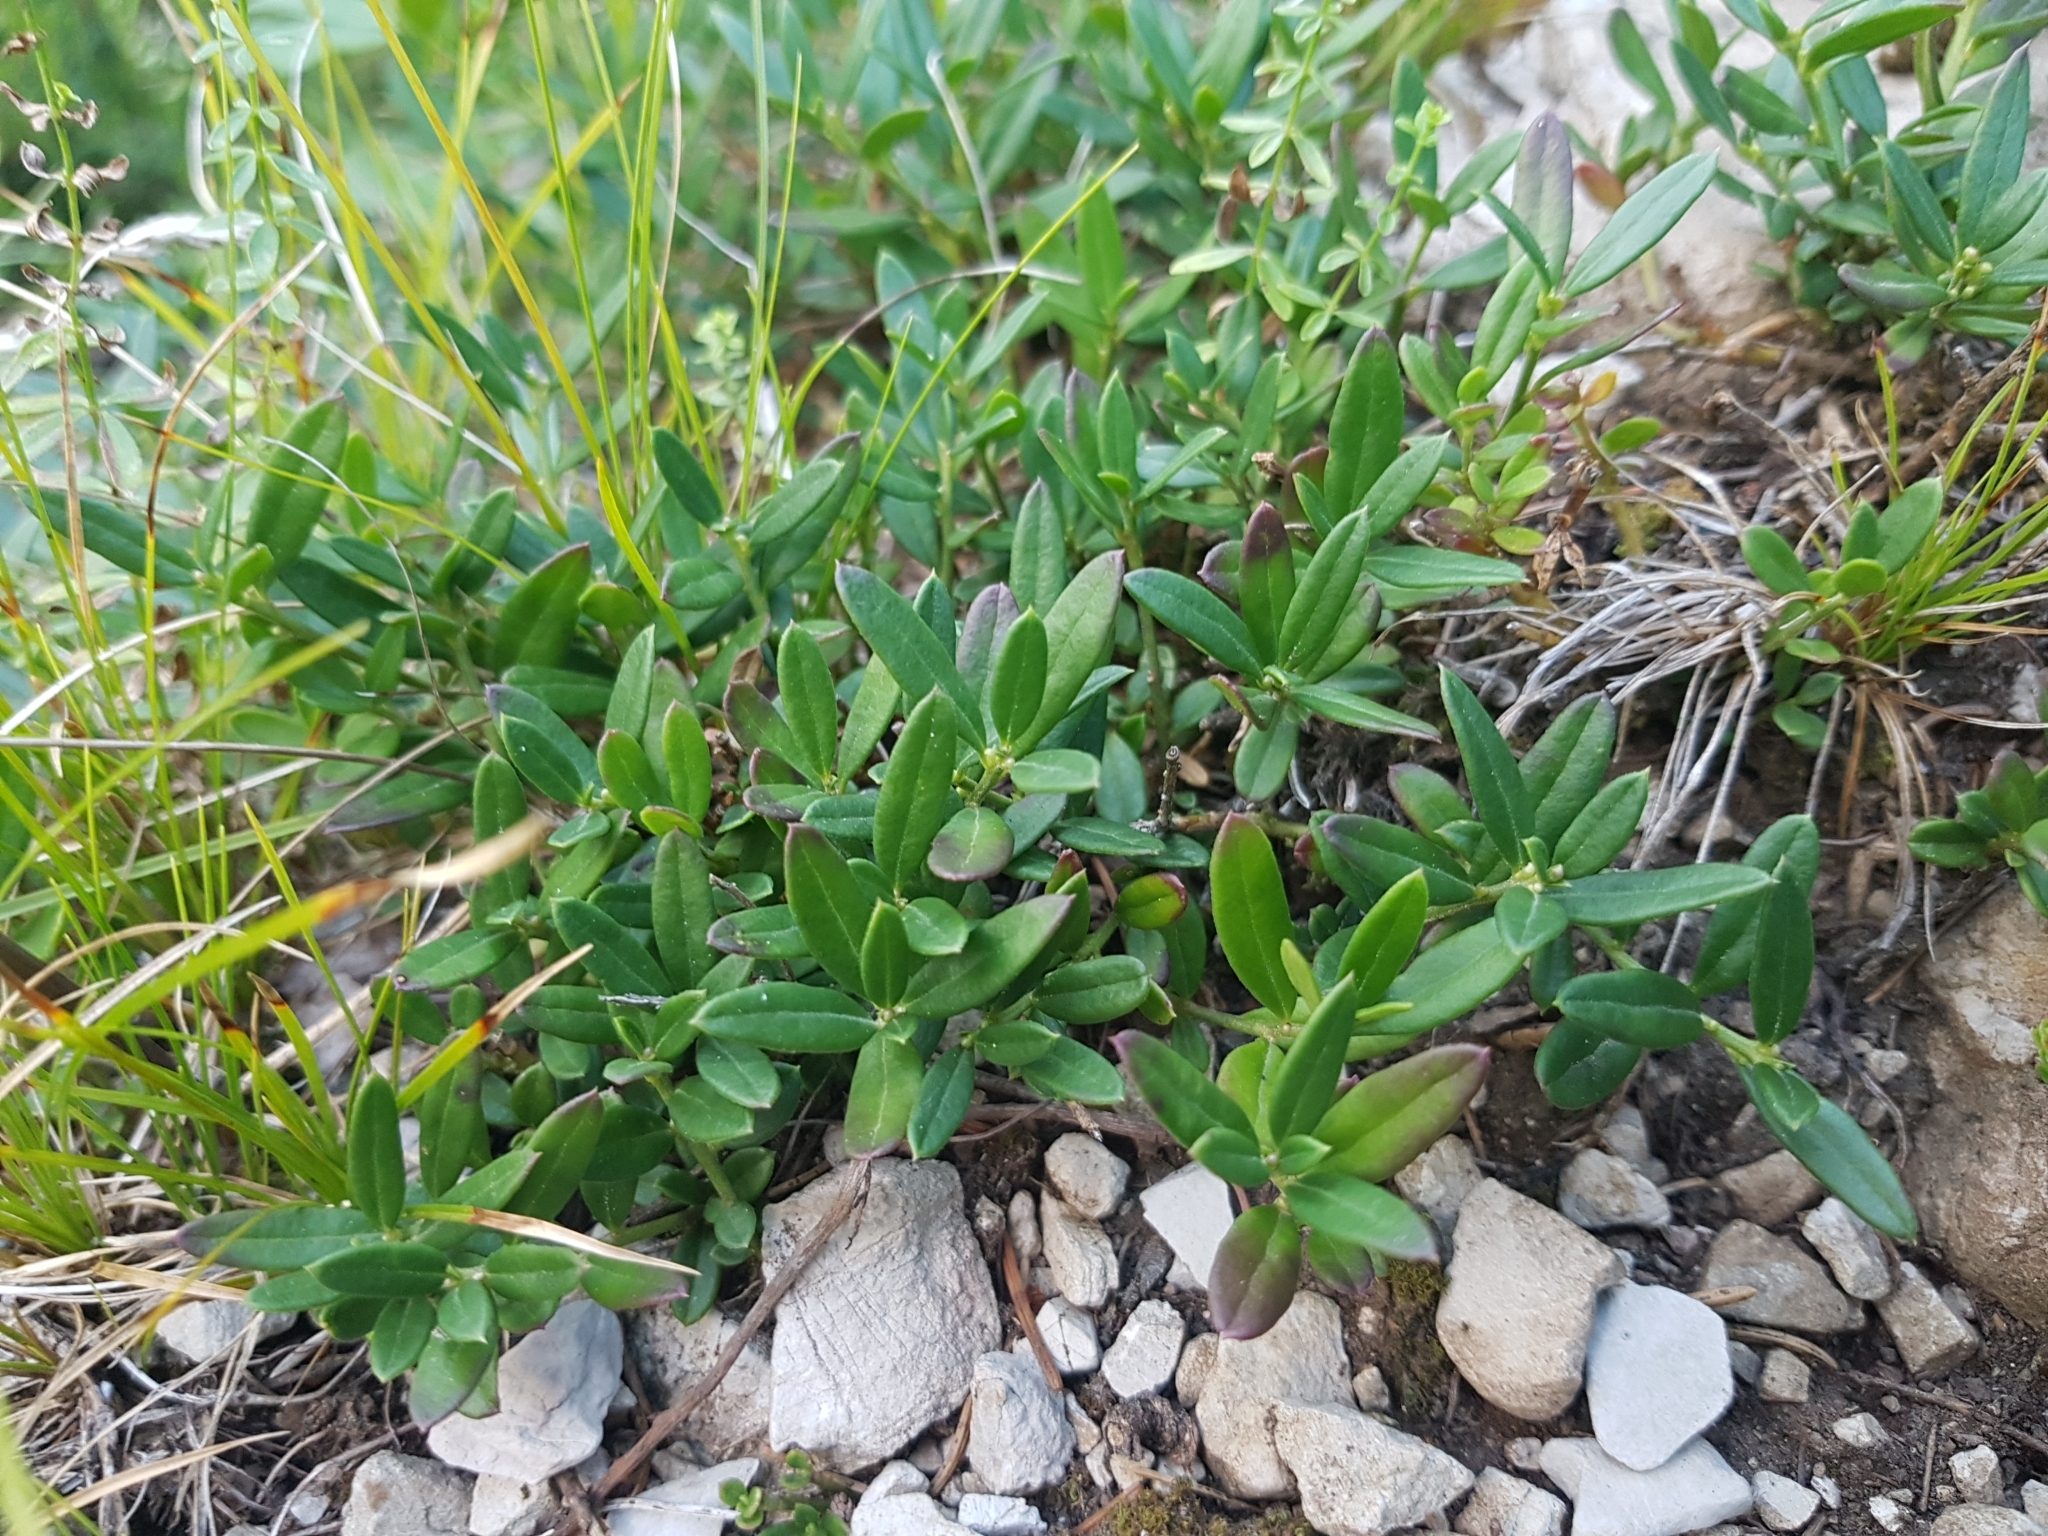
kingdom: Plantae
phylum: Tracheophyta
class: Magnoliopsida
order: Fabales
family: Polygalaceae
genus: Polygaloides
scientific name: Polygaloides chamaebuxus
